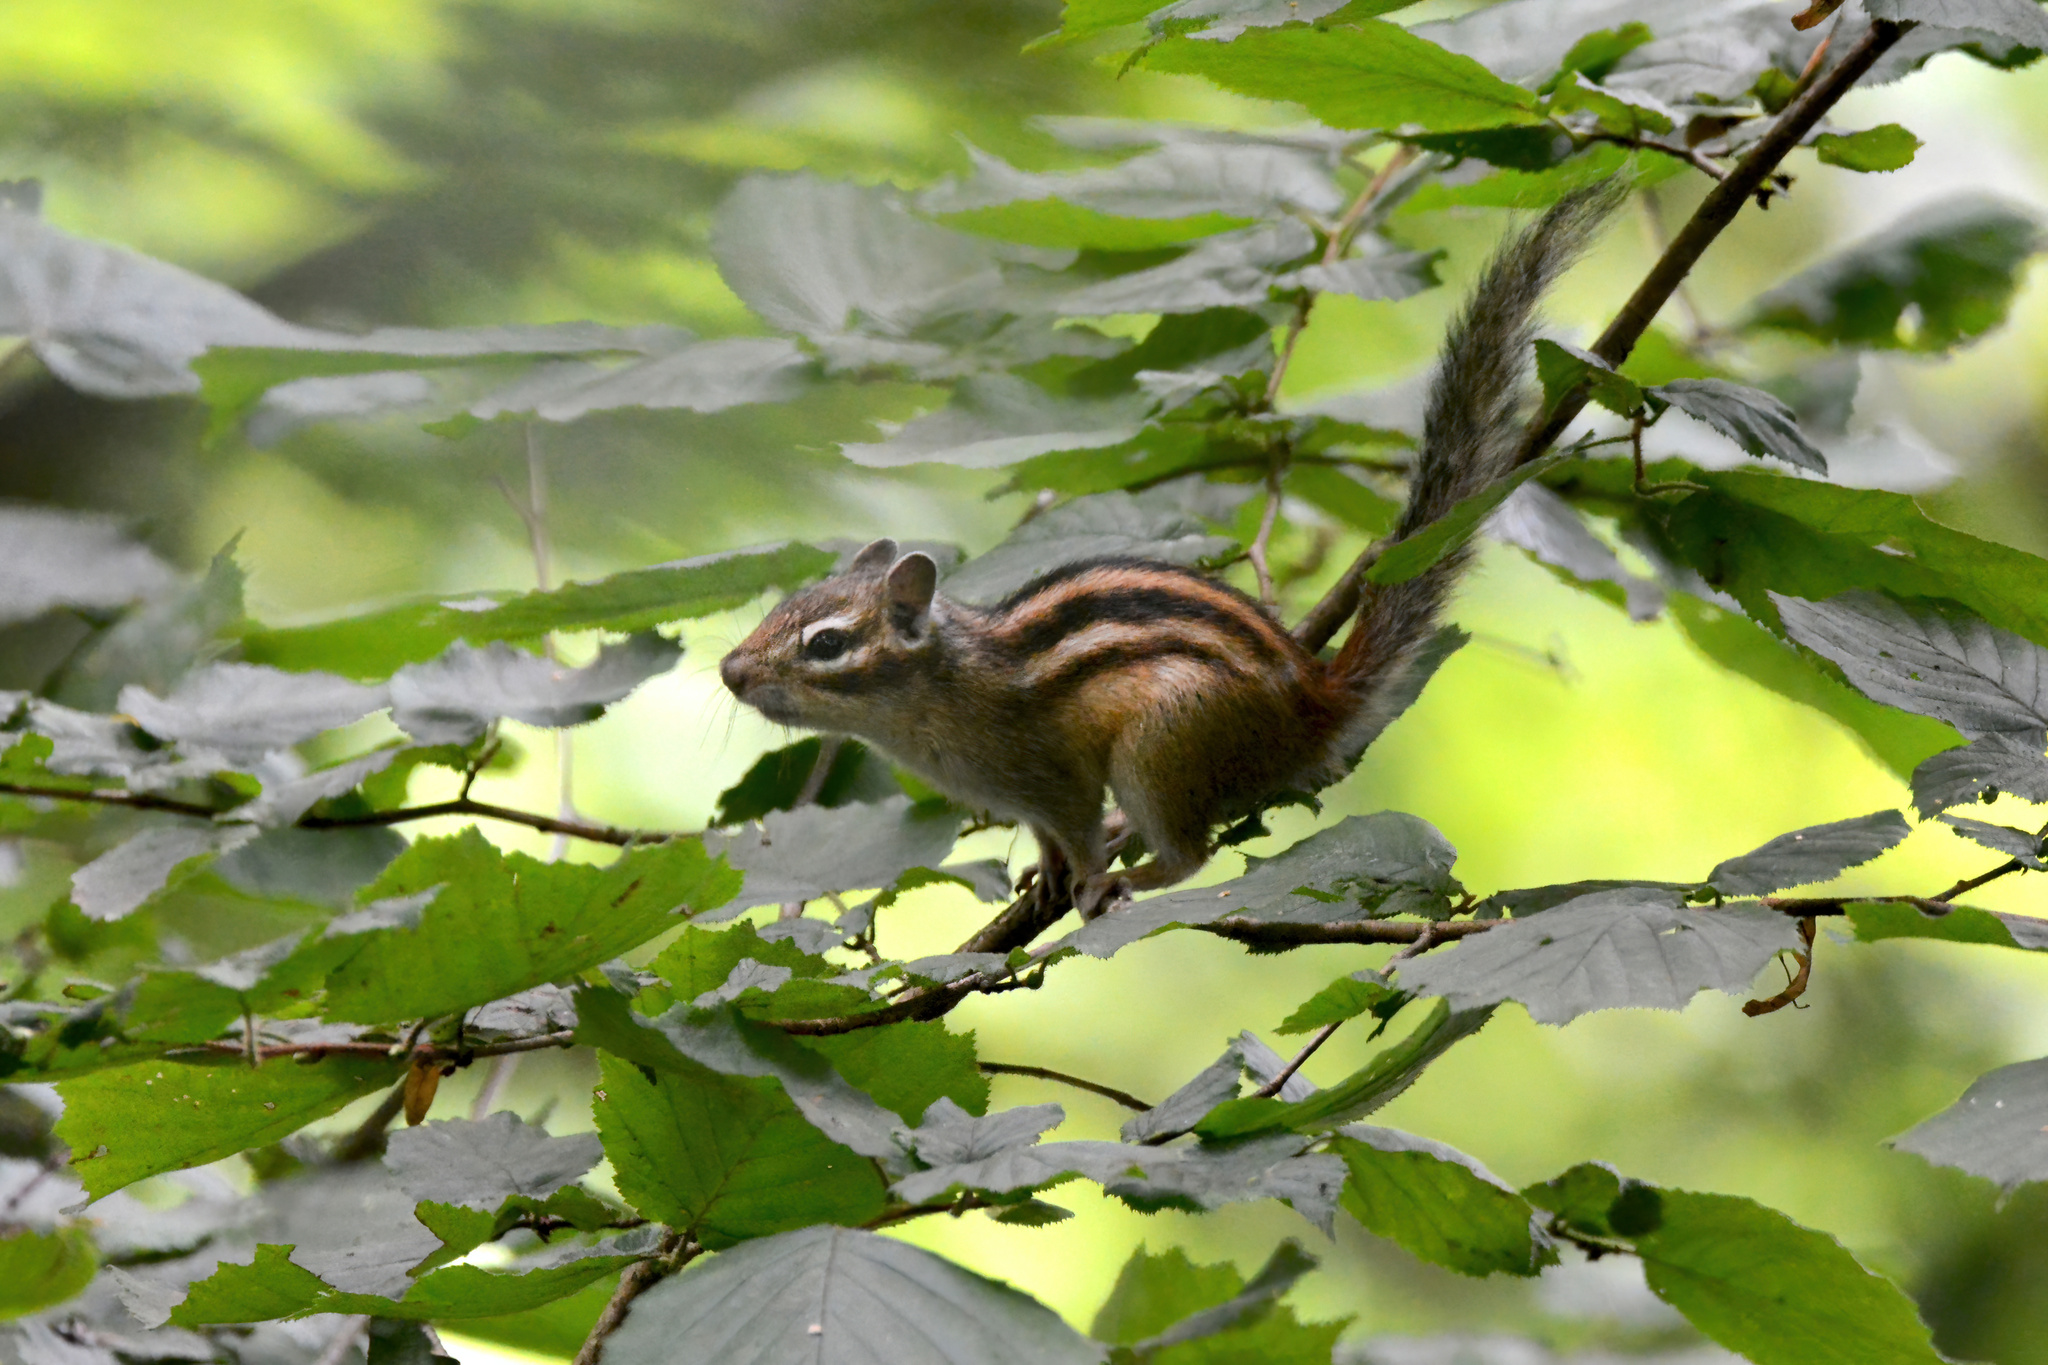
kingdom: Animalia
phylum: Chordata
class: Mammalia
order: Rodentia
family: Sciuridae
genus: Tamias
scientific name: Tamias sibiricus
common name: Siberian chipmunk
